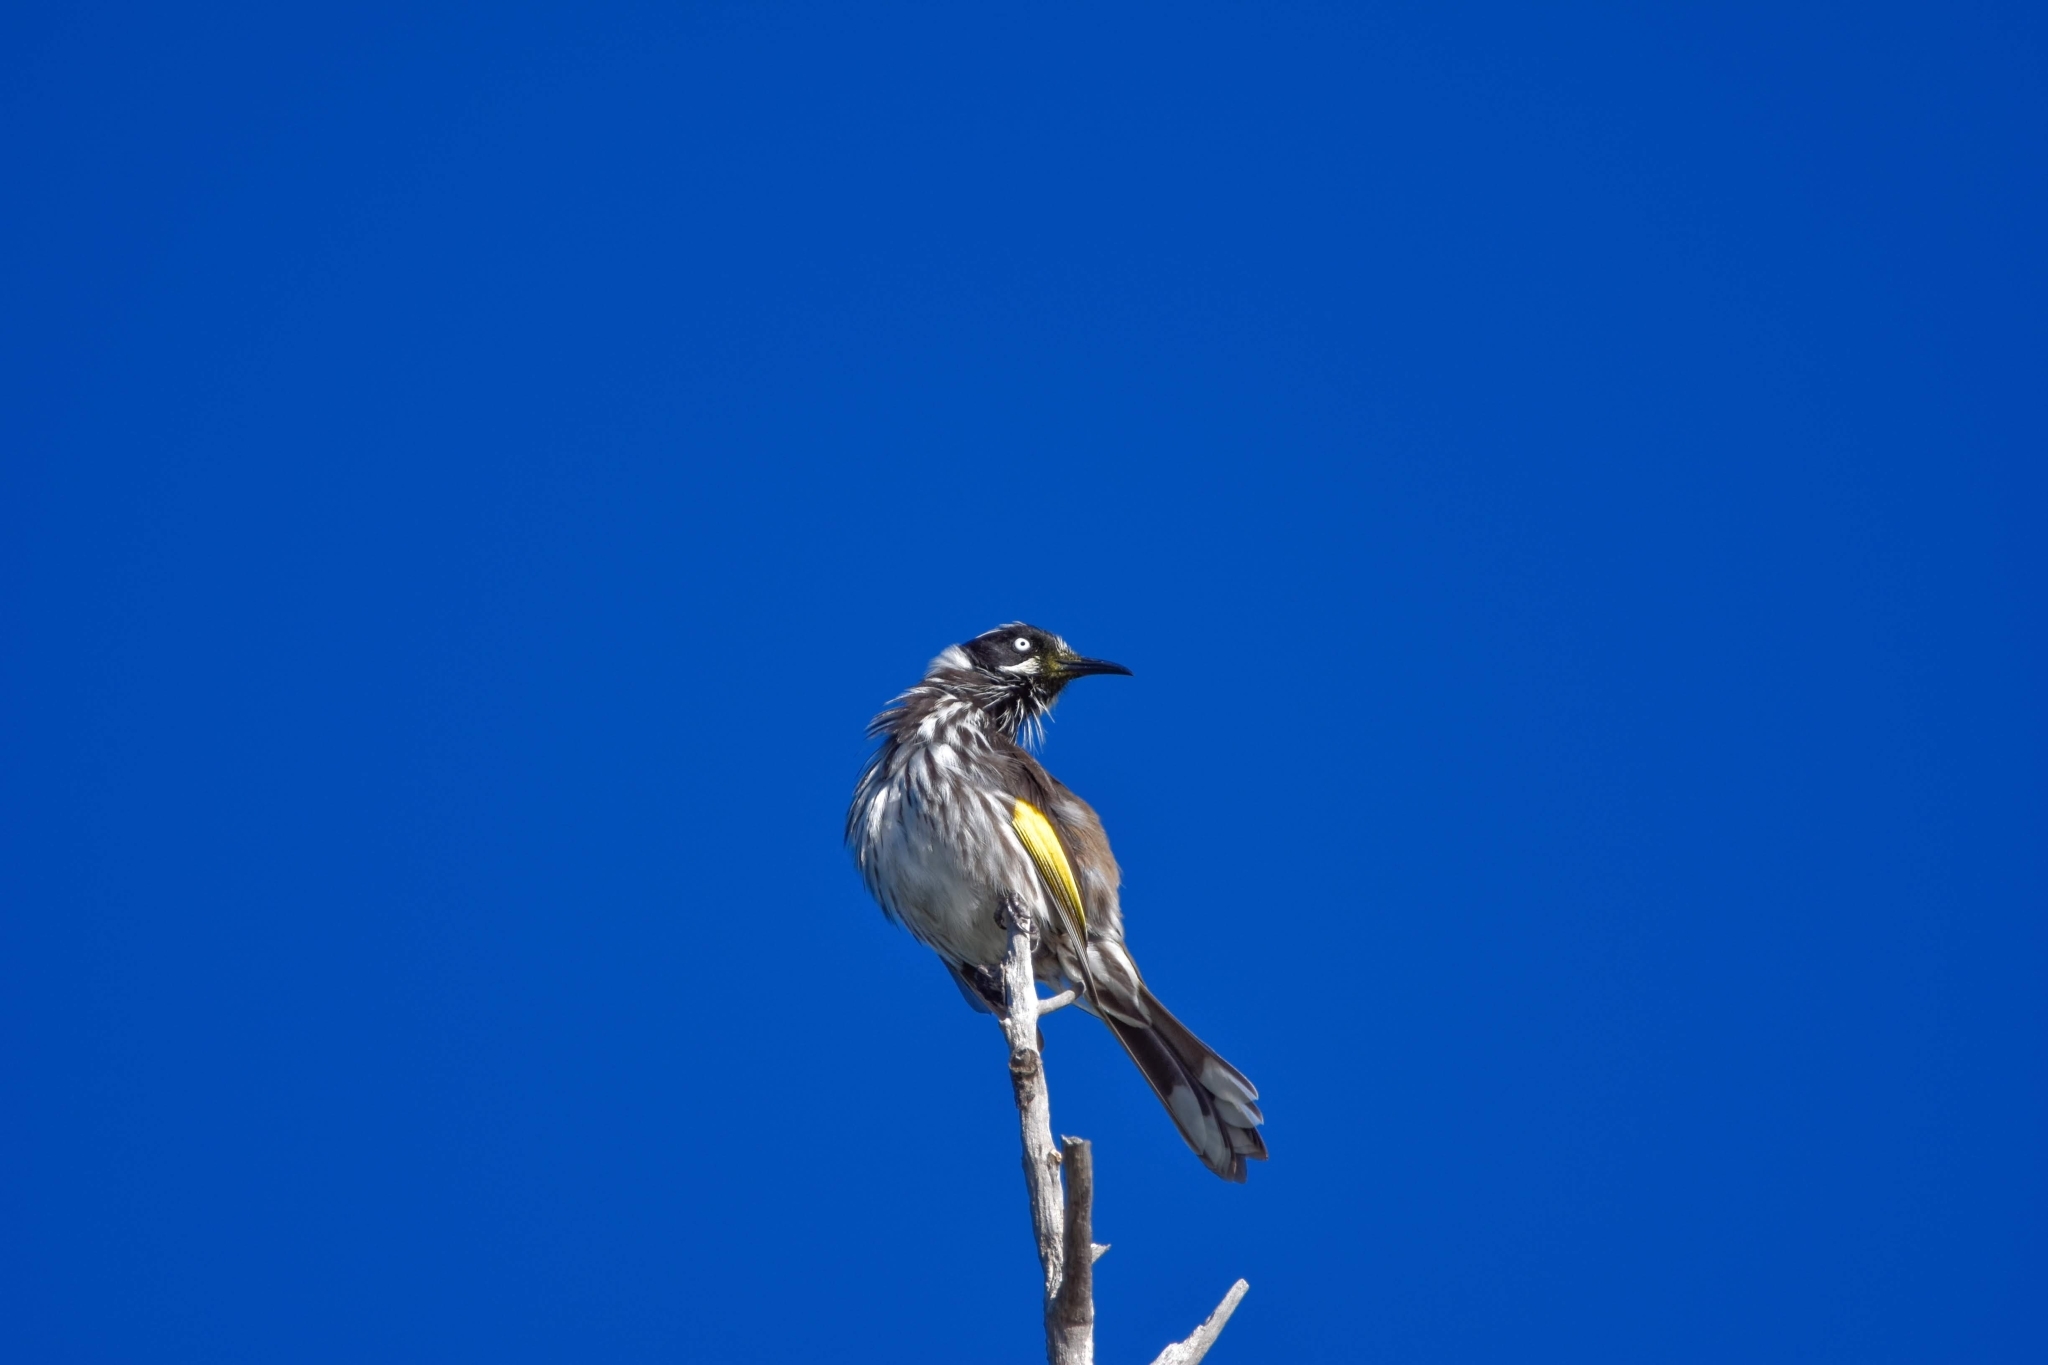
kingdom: Animalia
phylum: Chordata
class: Aves
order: Passeriformes
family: Meliphagidae
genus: Phylidonyris
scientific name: Phylidonyris novaehollandiae
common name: New holland honeyeater
